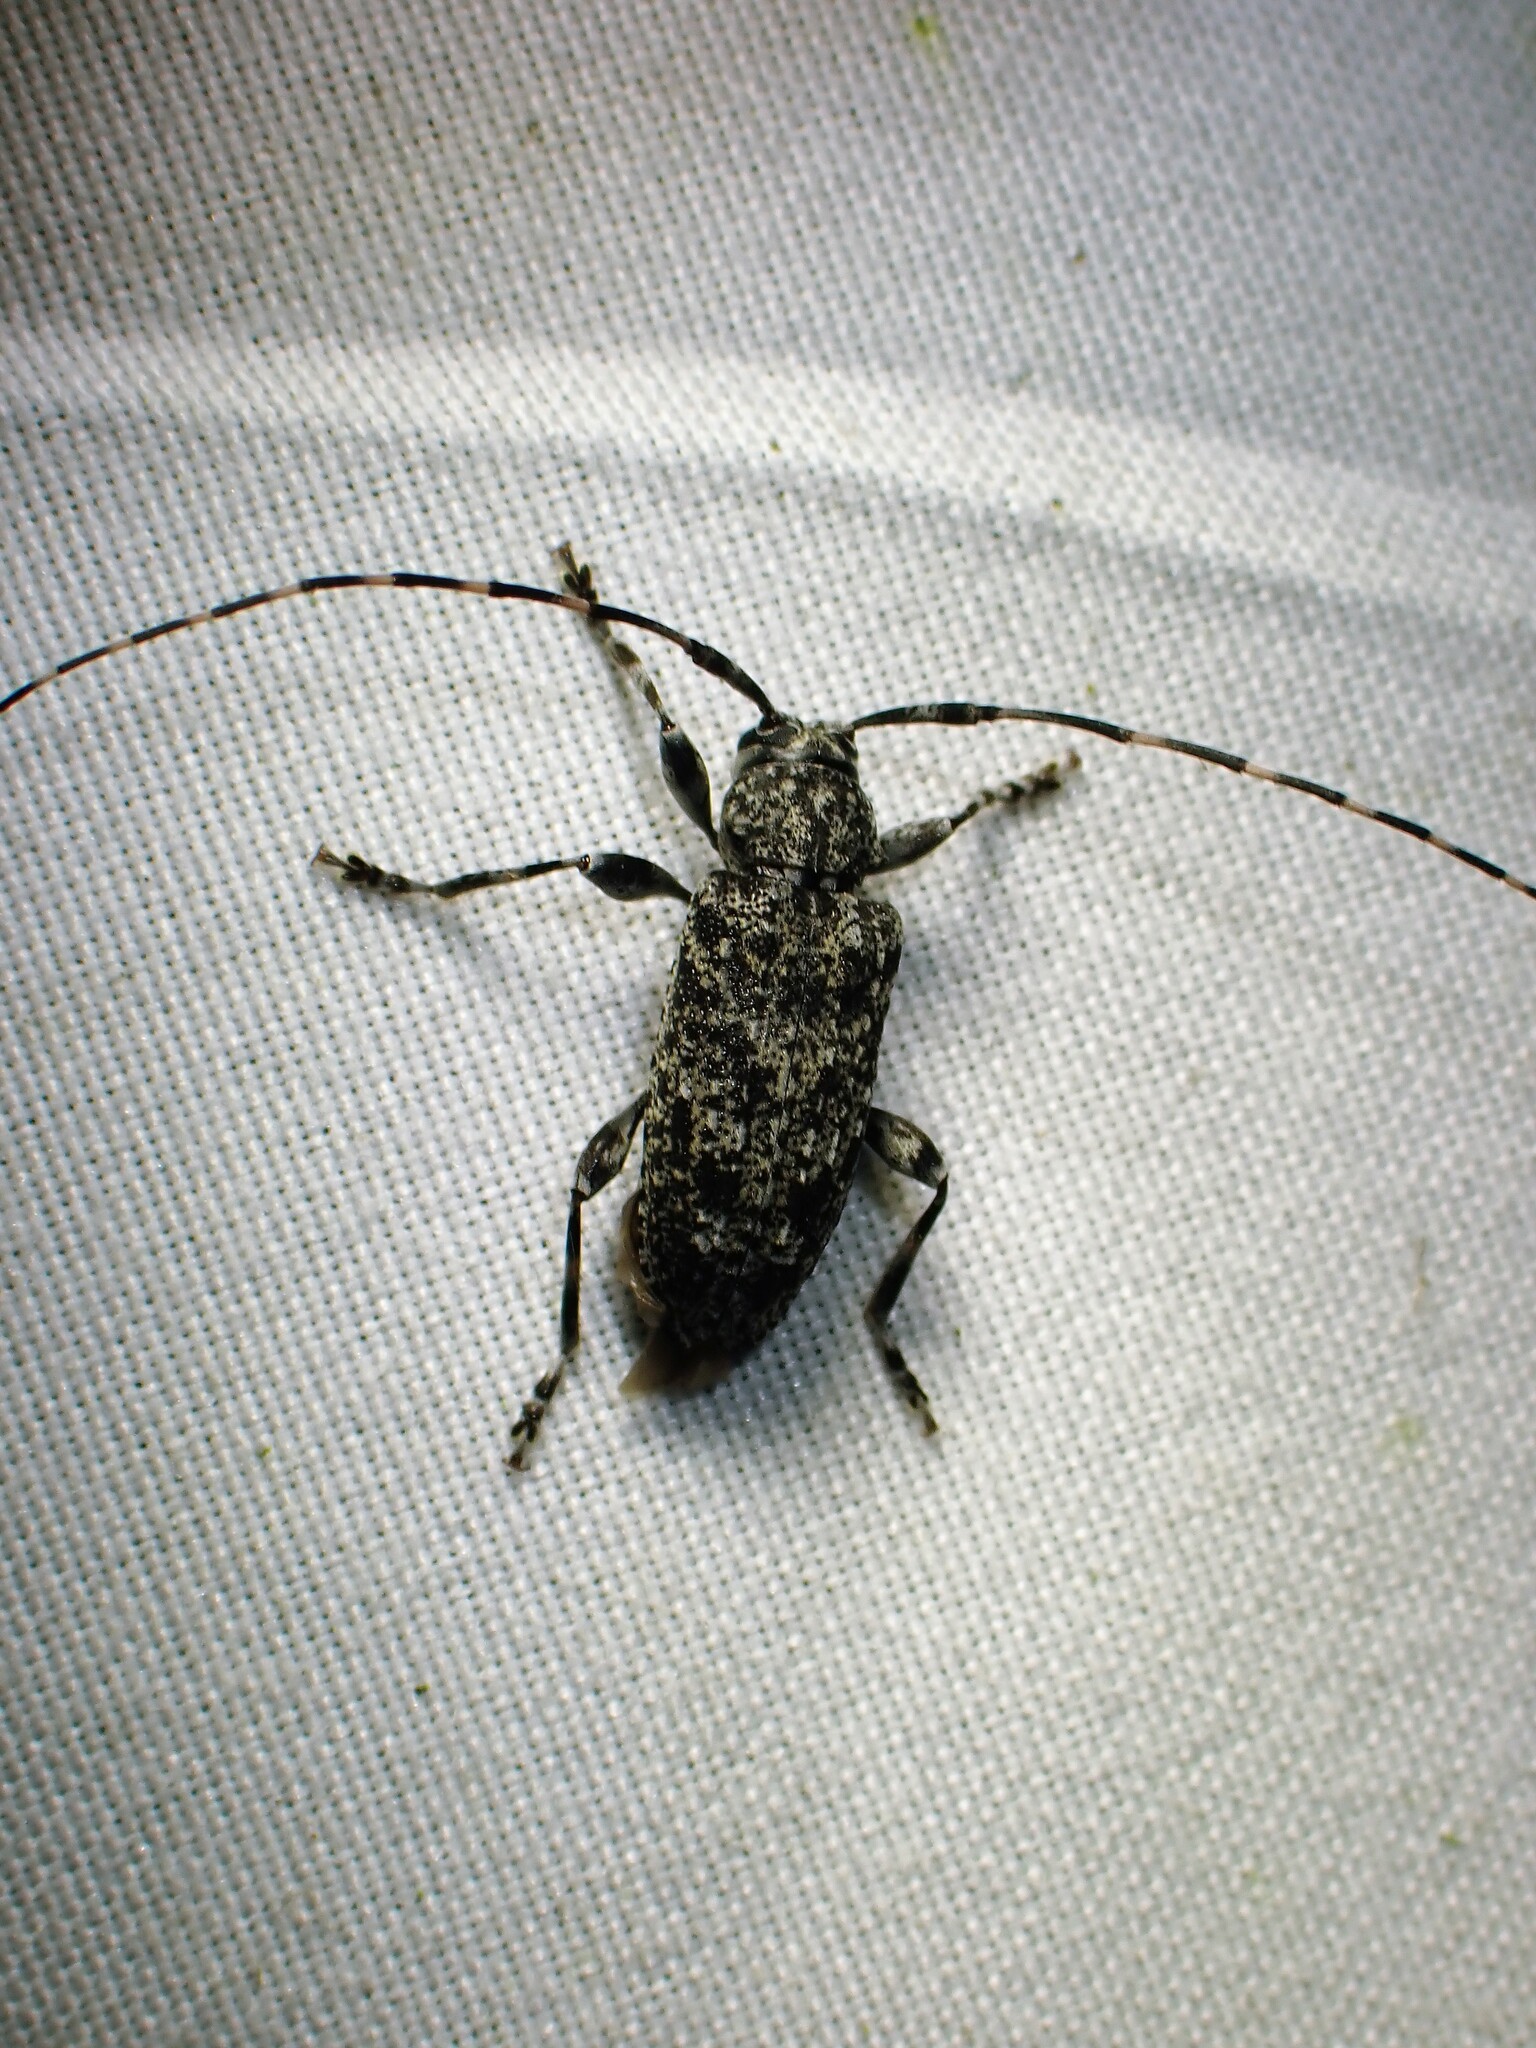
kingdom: Animalia
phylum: Arthropoda
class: Insecta
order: Coleoptera
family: Cerambycidae
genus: Astyleiopus
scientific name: Astyleiopus variegatus
